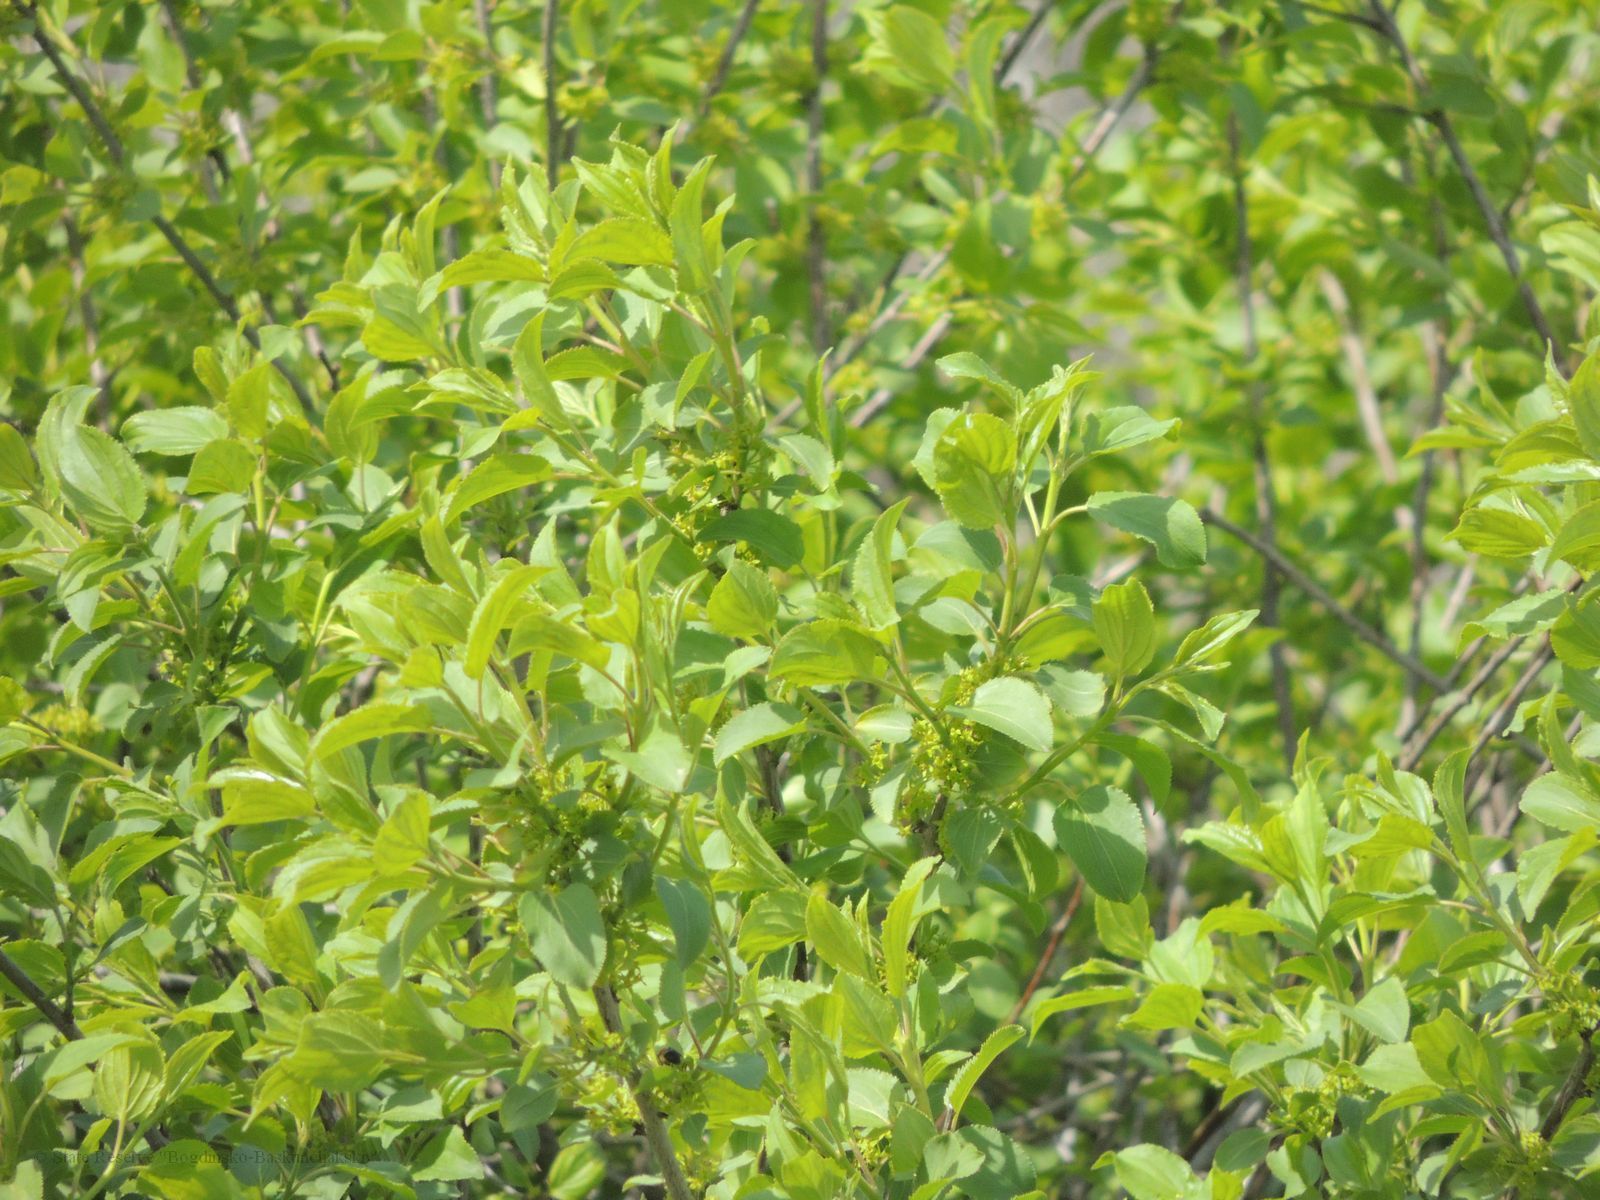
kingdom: Plantae
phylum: Tracheophyta
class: Magnoliopsida
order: Rosales
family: Rhamnaceae
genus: Rhamnus
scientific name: Rhamnus cathartica
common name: Common buckthorn
